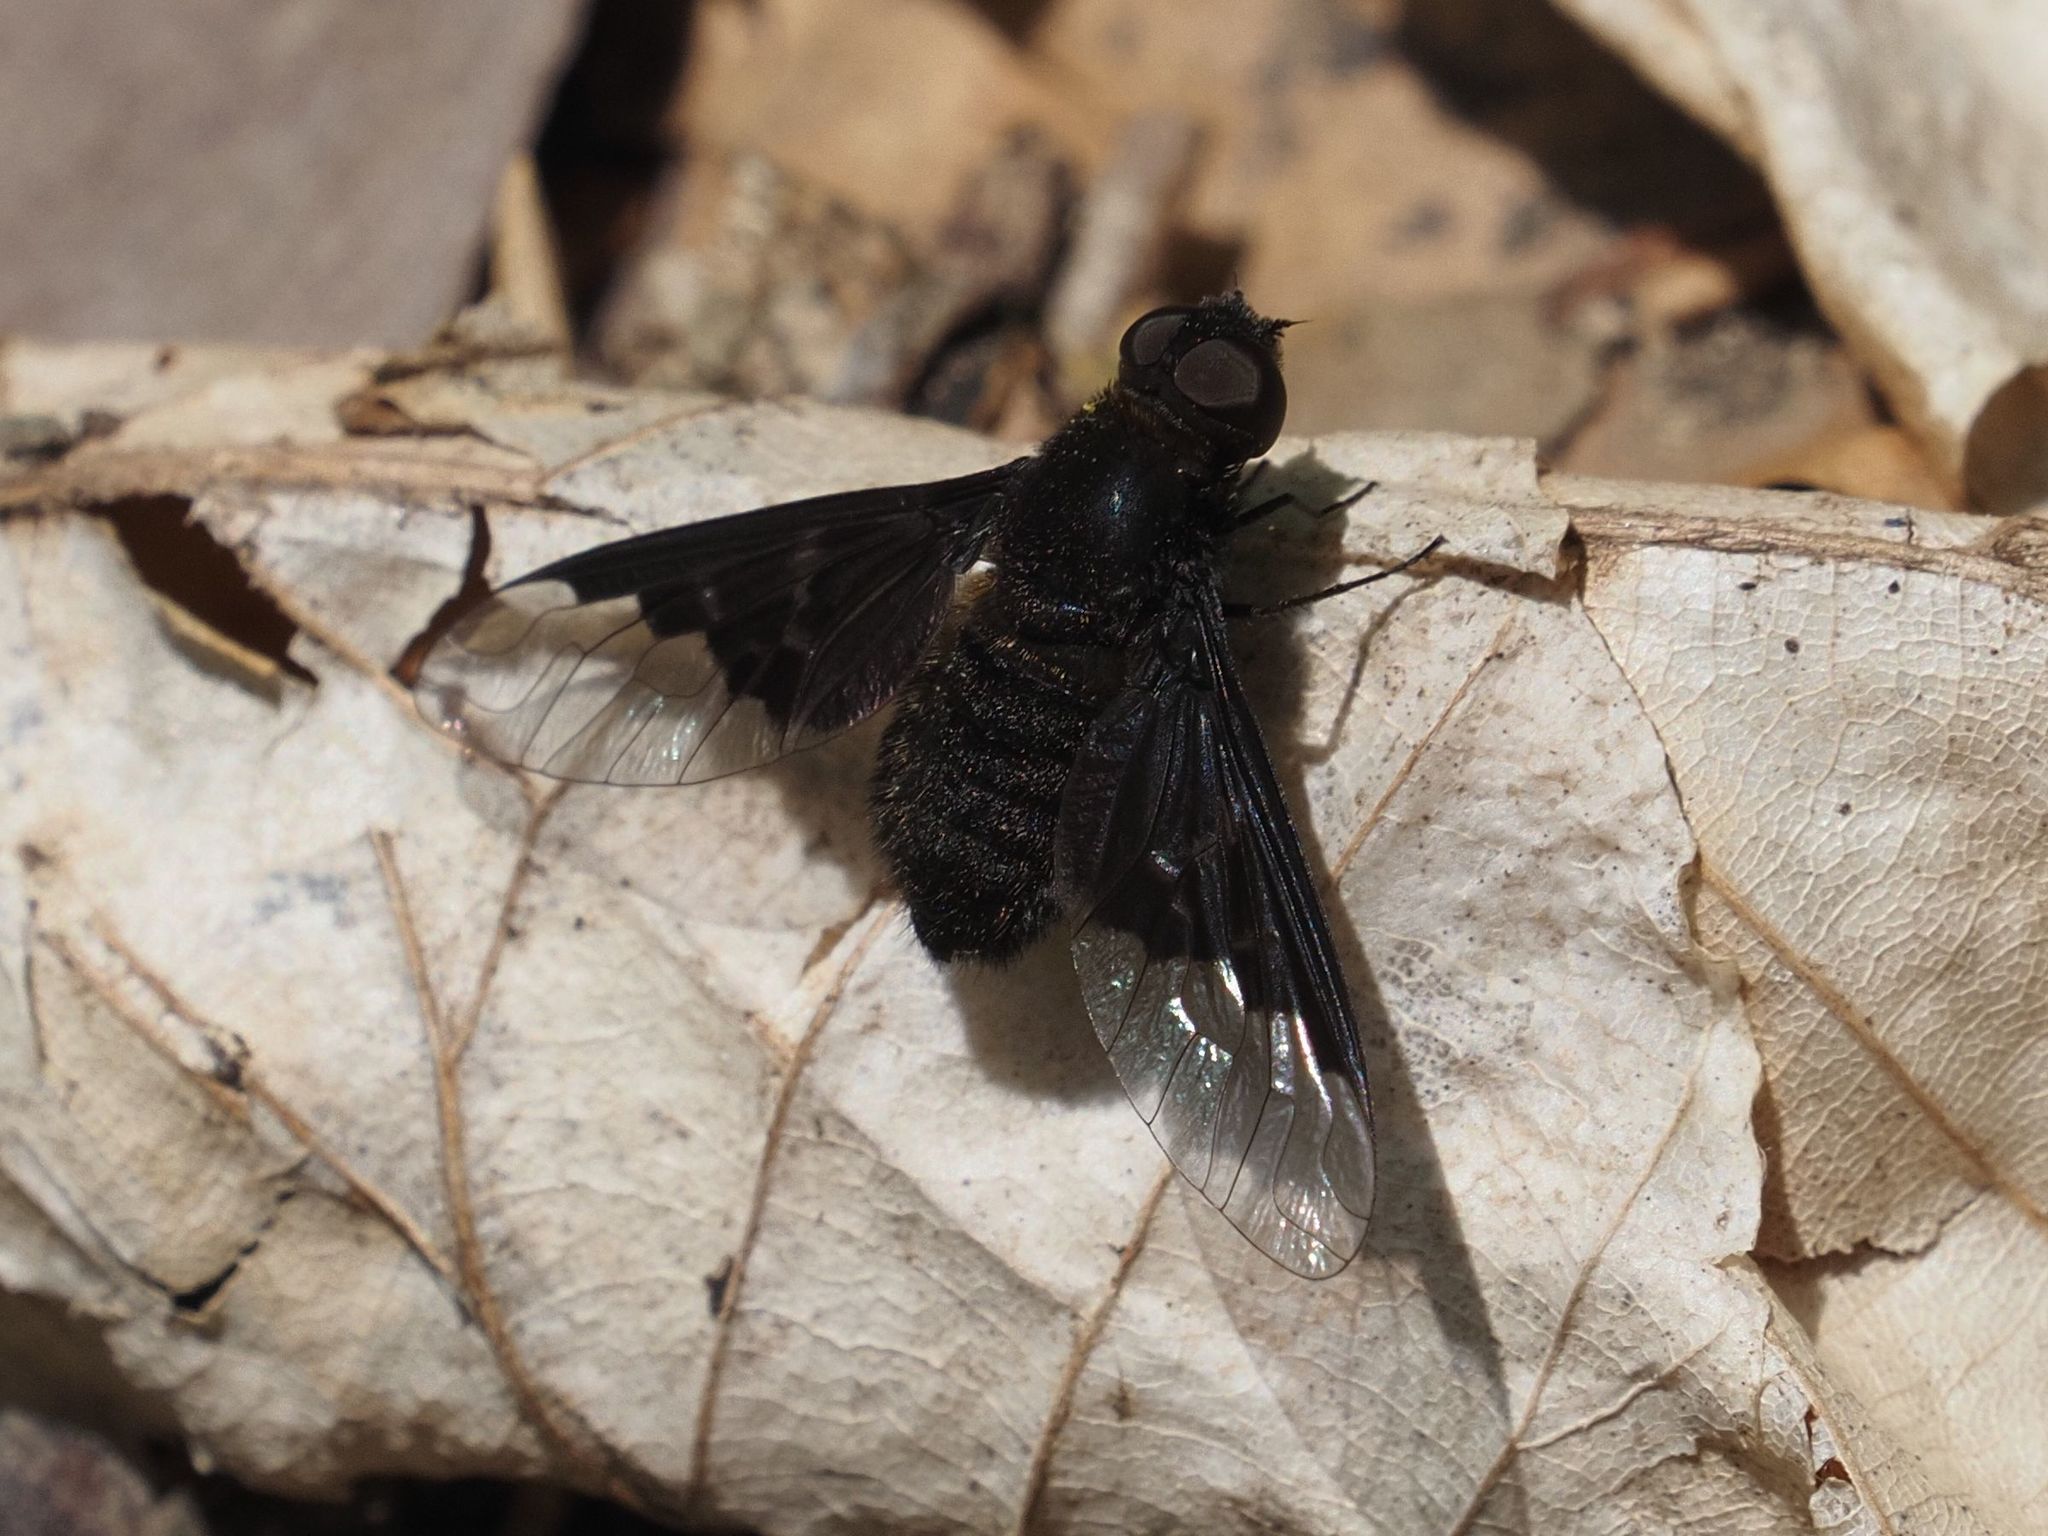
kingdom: Animalia
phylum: Arthropoda
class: Insecta
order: Diptera
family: Bombyliidae
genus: Hemipenthes
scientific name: Hemipenthes morio
